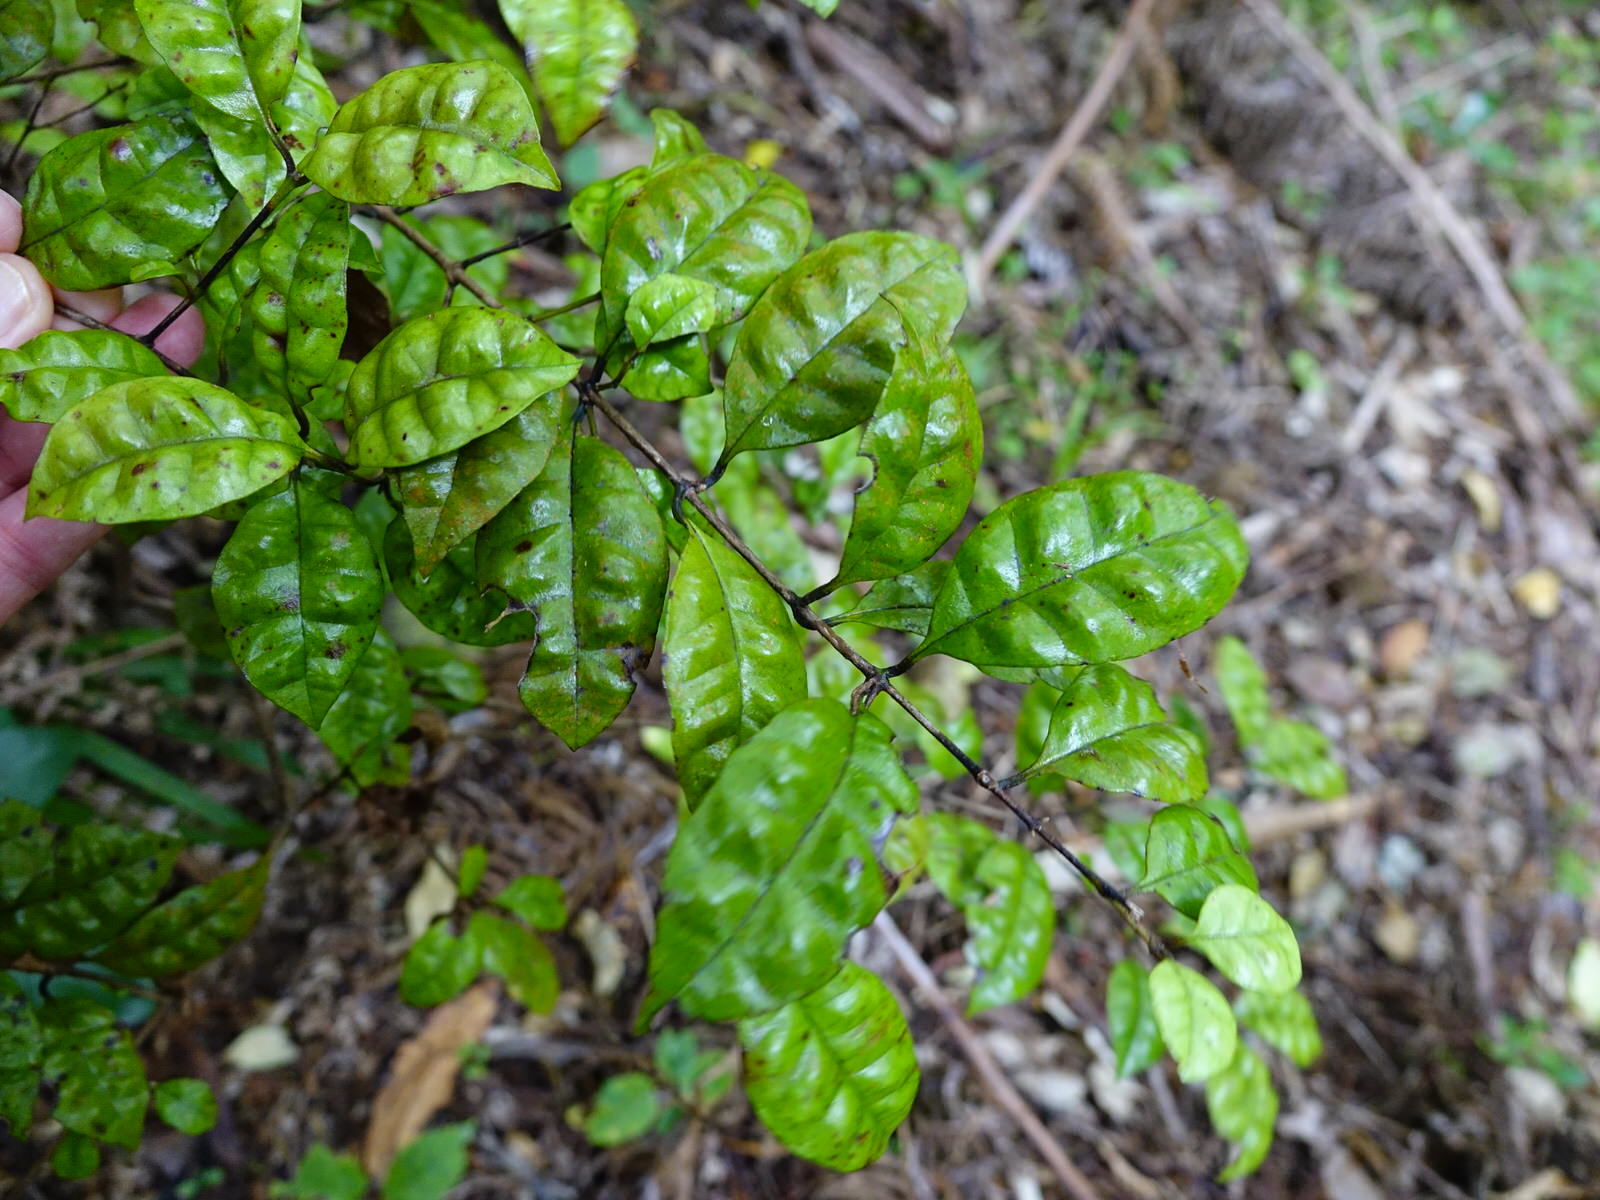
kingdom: Plantae
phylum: Tracheophyta
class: Magnoliopsida
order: Myrtales
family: Myrtaceae
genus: Lophomyrtus
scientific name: Lophomyrtus bullata
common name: Rama rama
